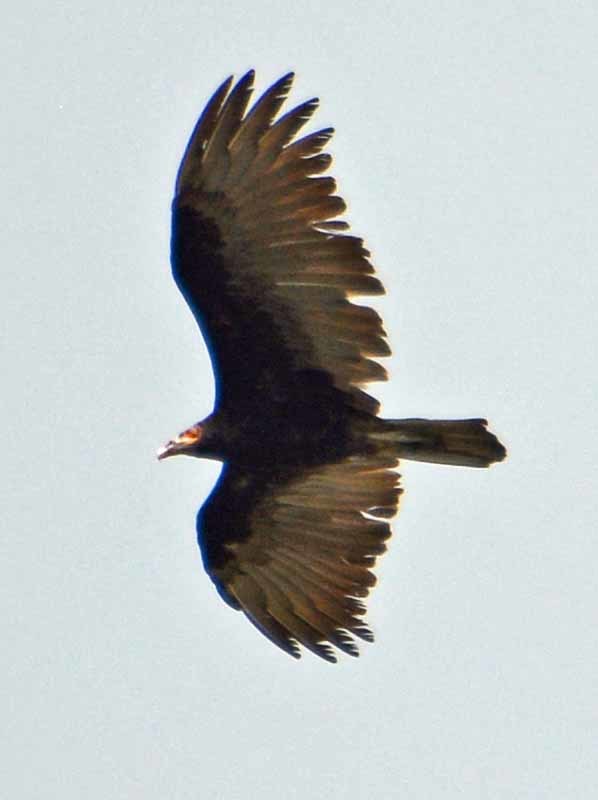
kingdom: Animalia
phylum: Chordata
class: Aves
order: Accipitriformes
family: Cathartidae
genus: Cathartes
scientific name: Cathartes burrovianus
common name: Lesser yellow-headed vulture
